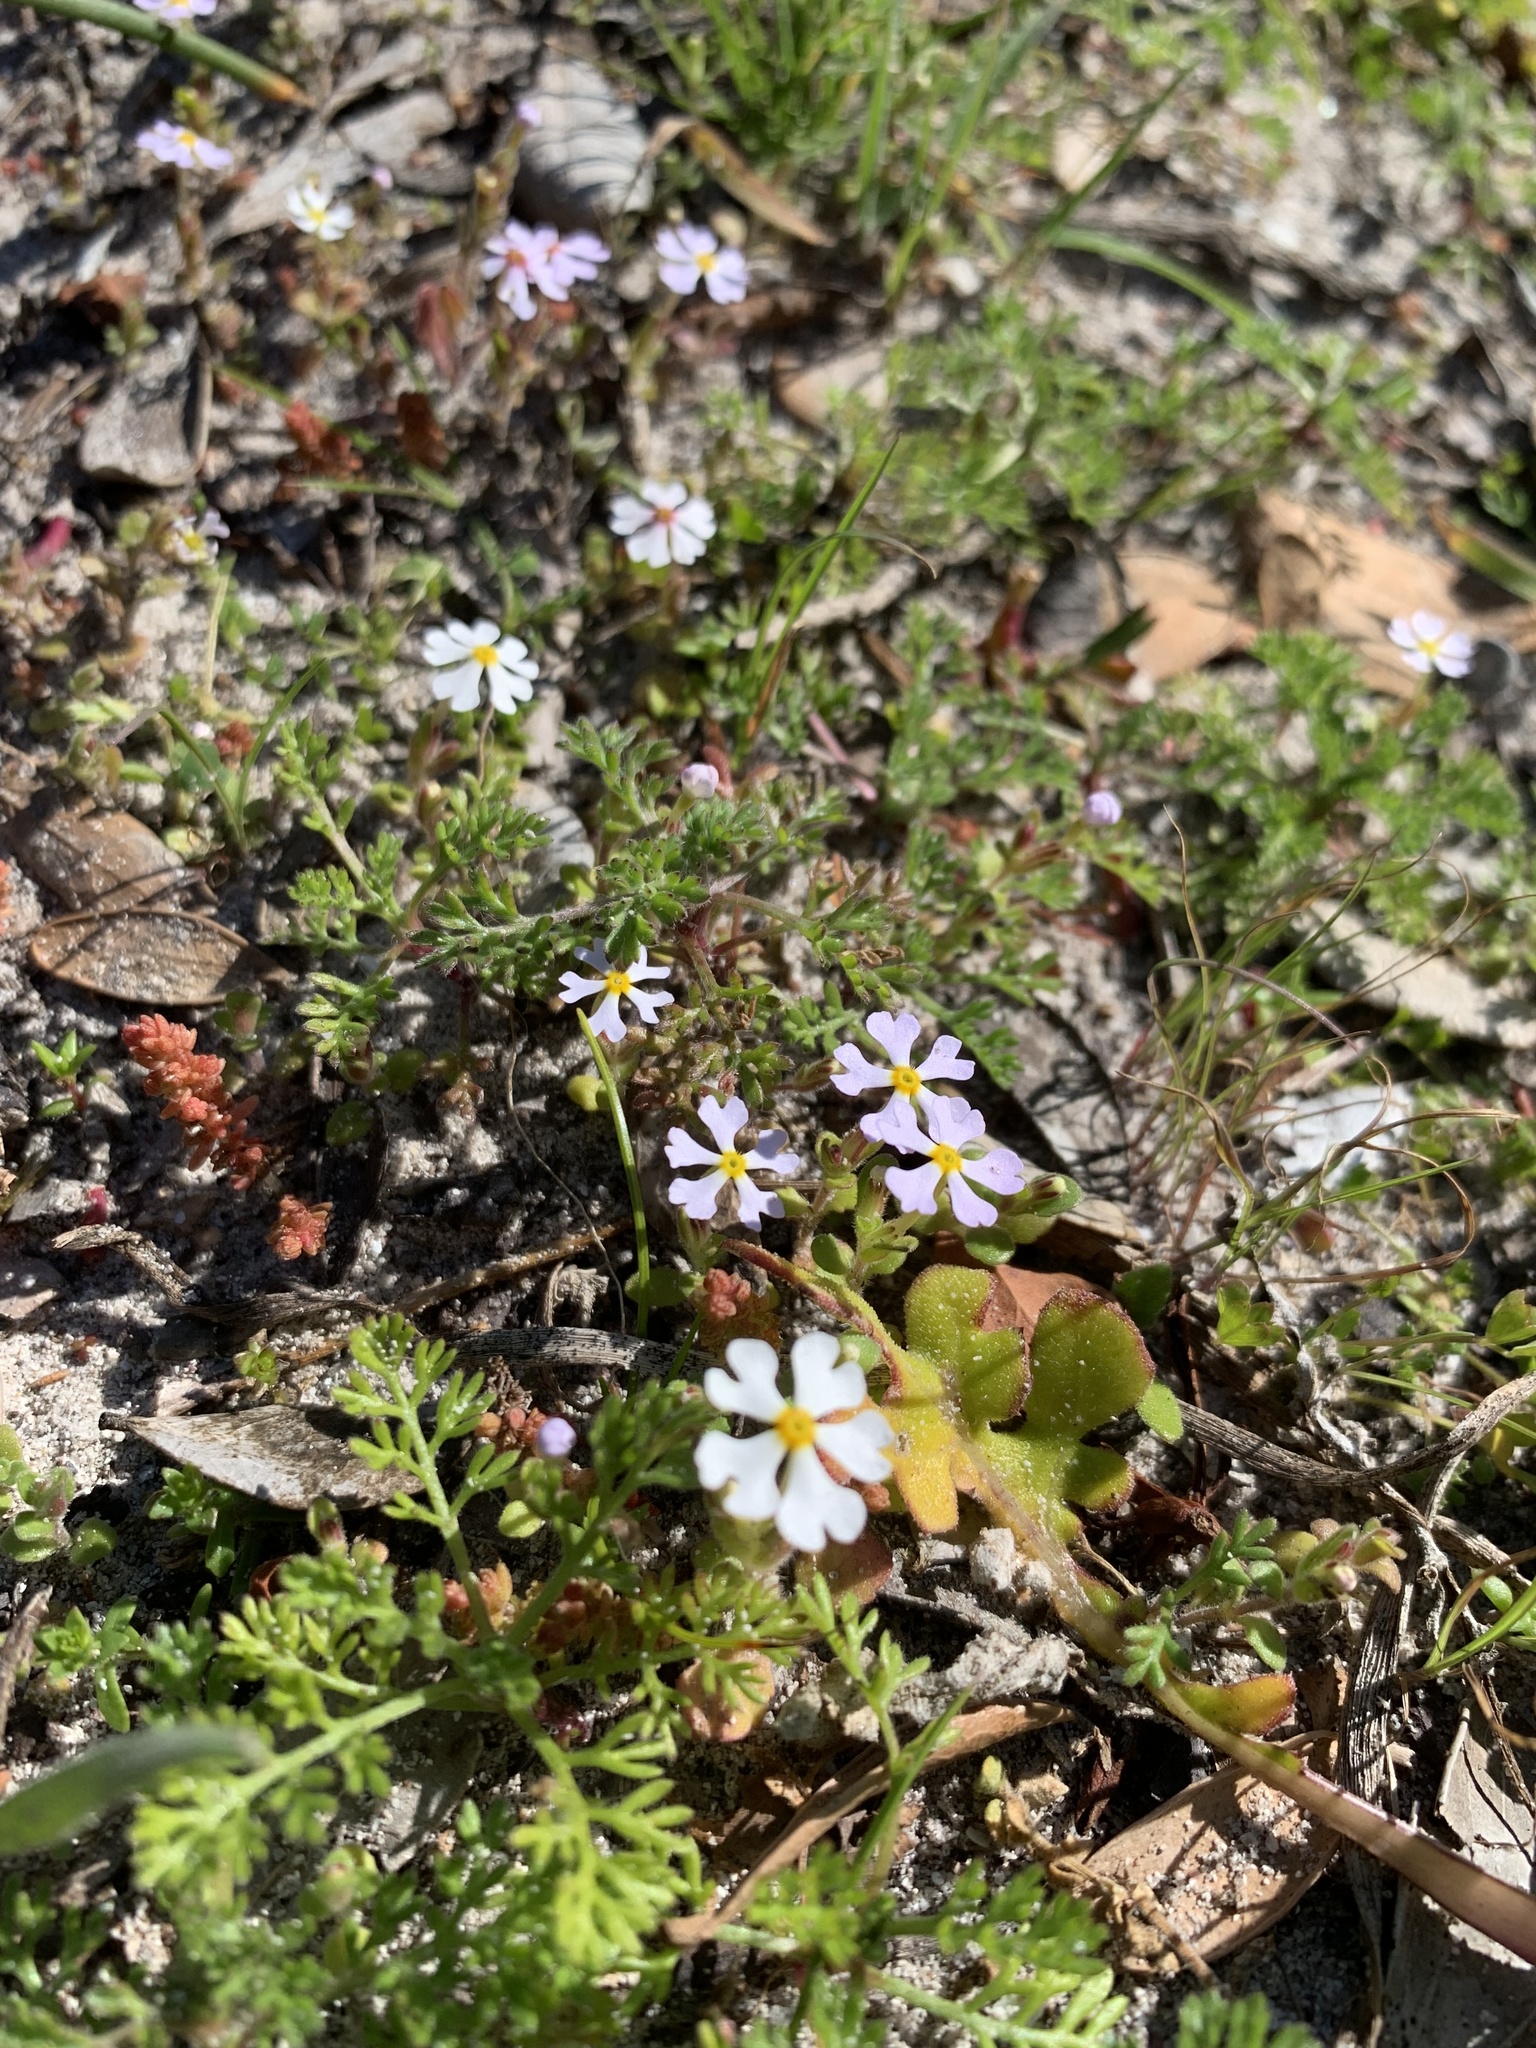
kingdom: Plantae
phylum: Tracheophyta
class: Magnoliopsida
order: Lamiales
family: Scrophulariaceae
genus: Zaluzianskya
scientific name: Zaluzianskya villosa
